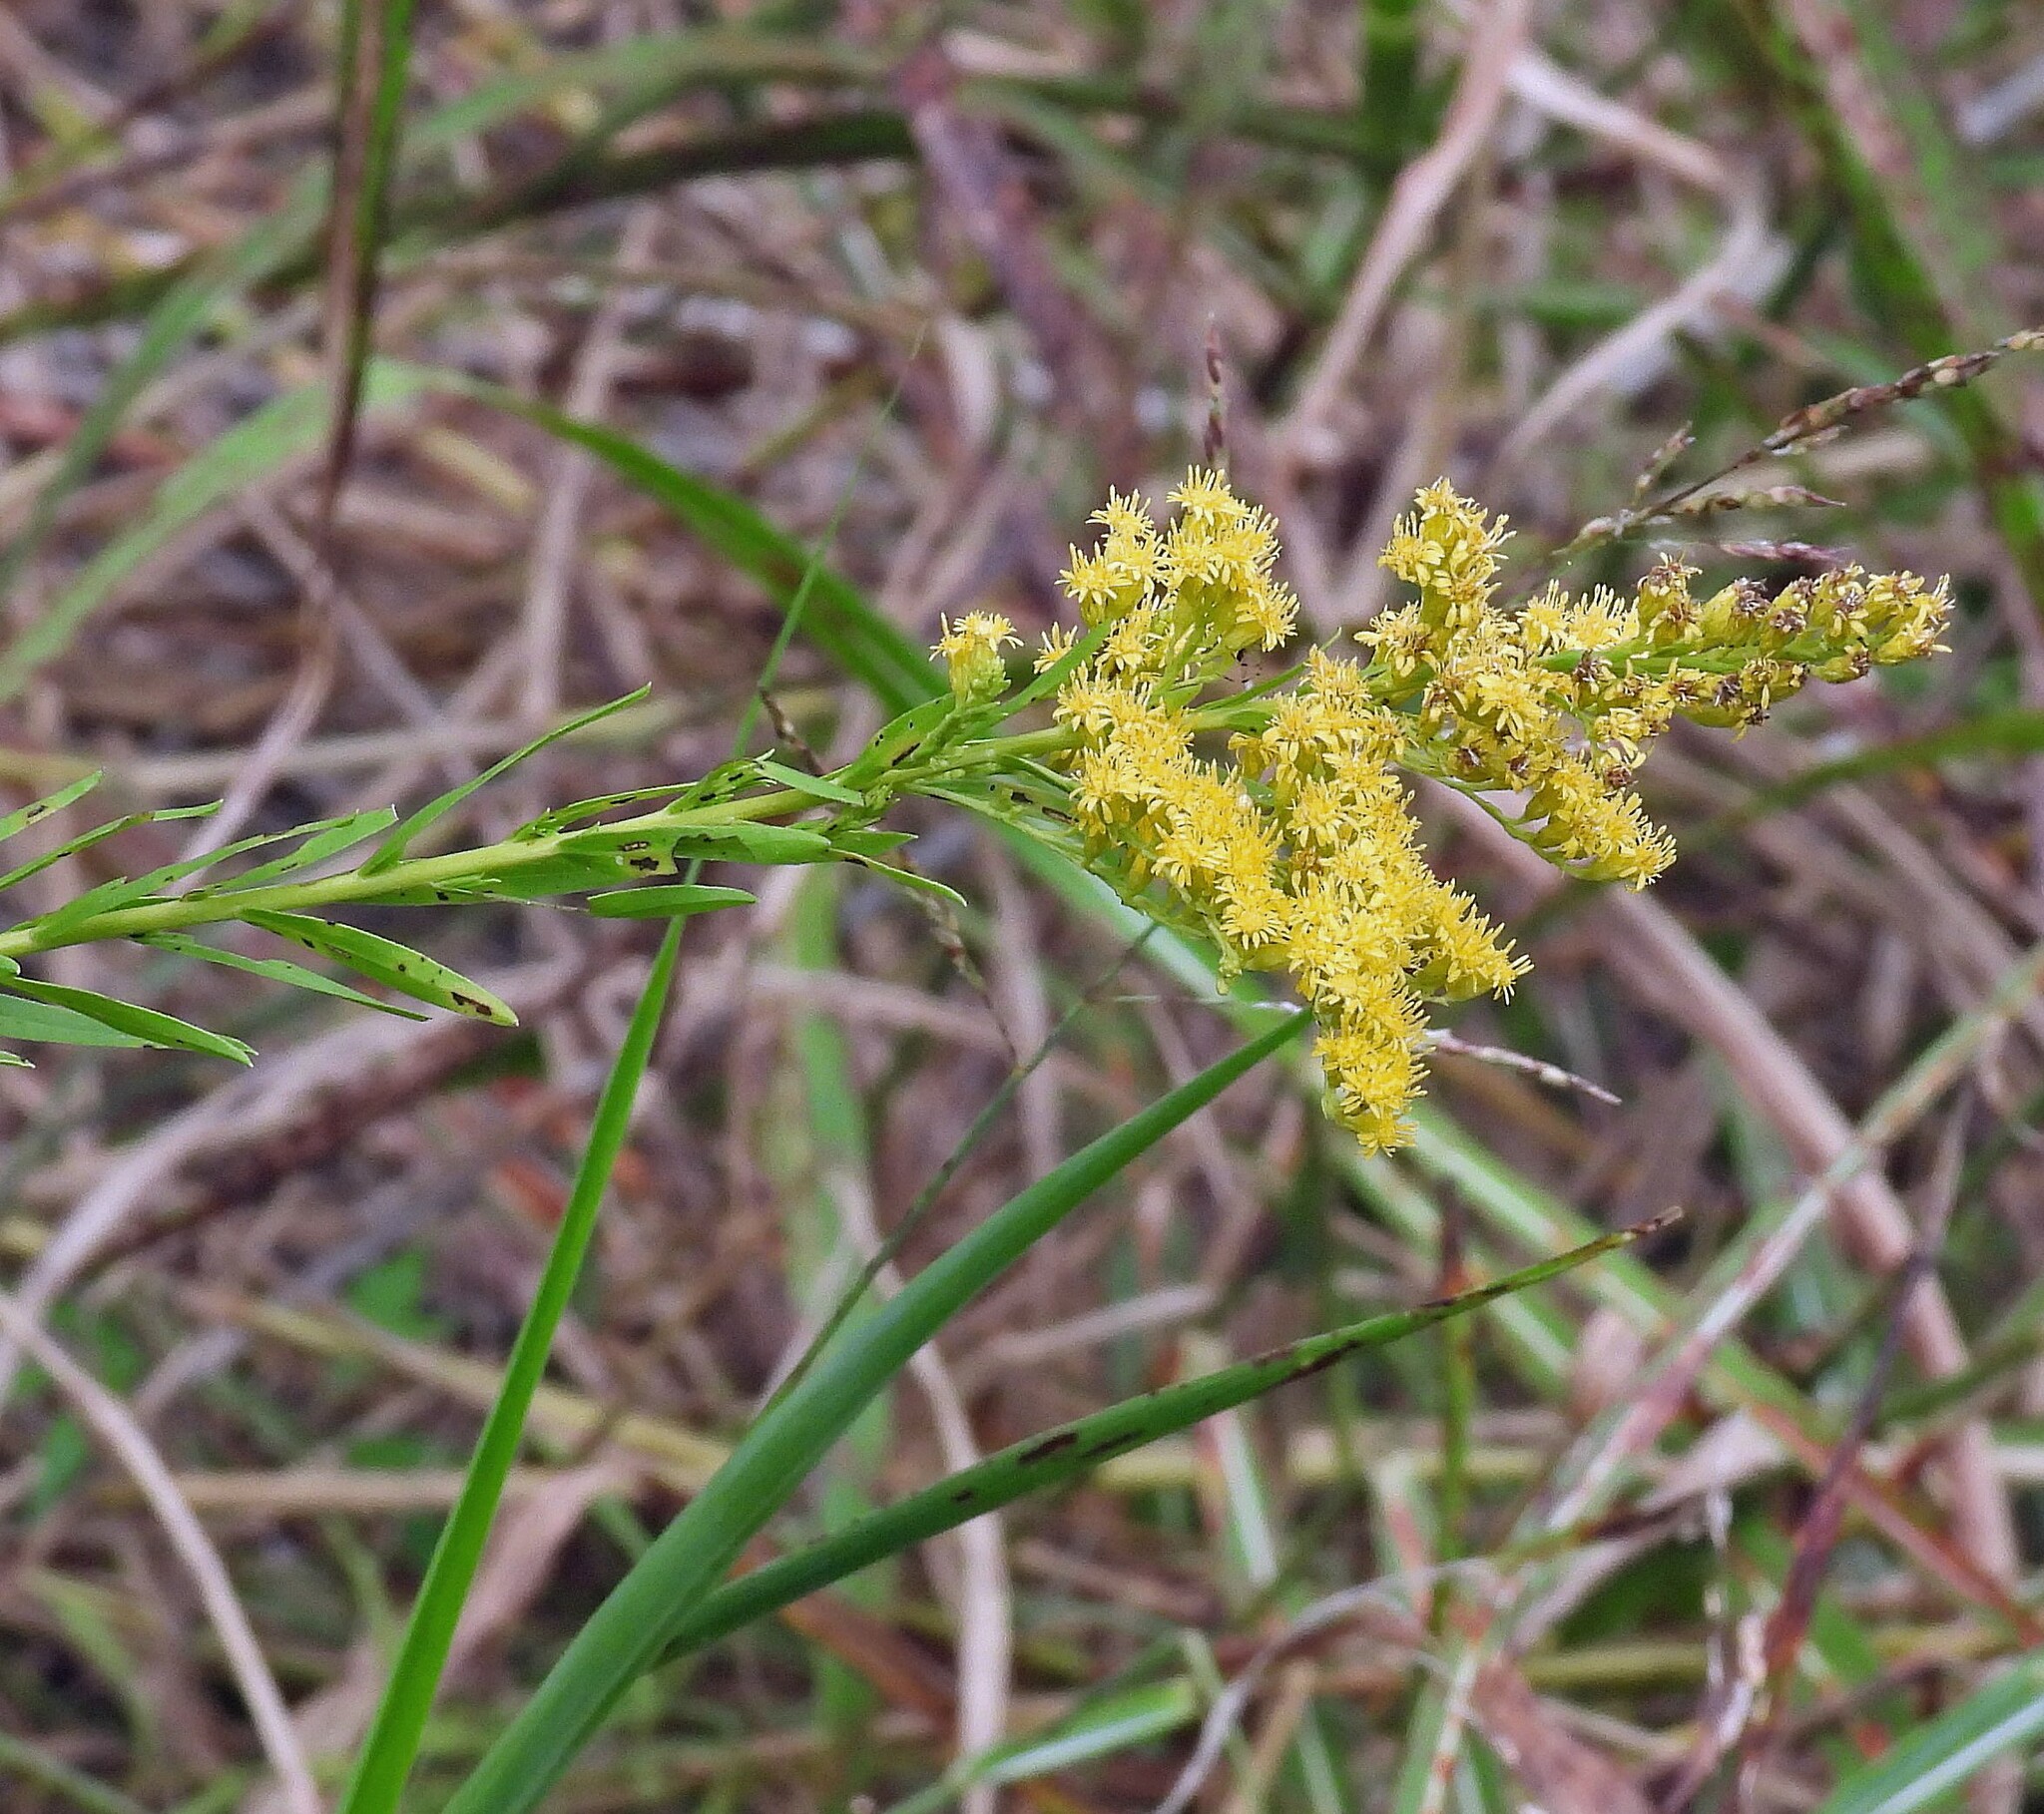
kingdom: Plantae
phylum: Tracheophyta
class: Magnoliopsida
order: Asterales
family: Asteraceae
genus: Solidago
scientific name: Solidago chilensis
